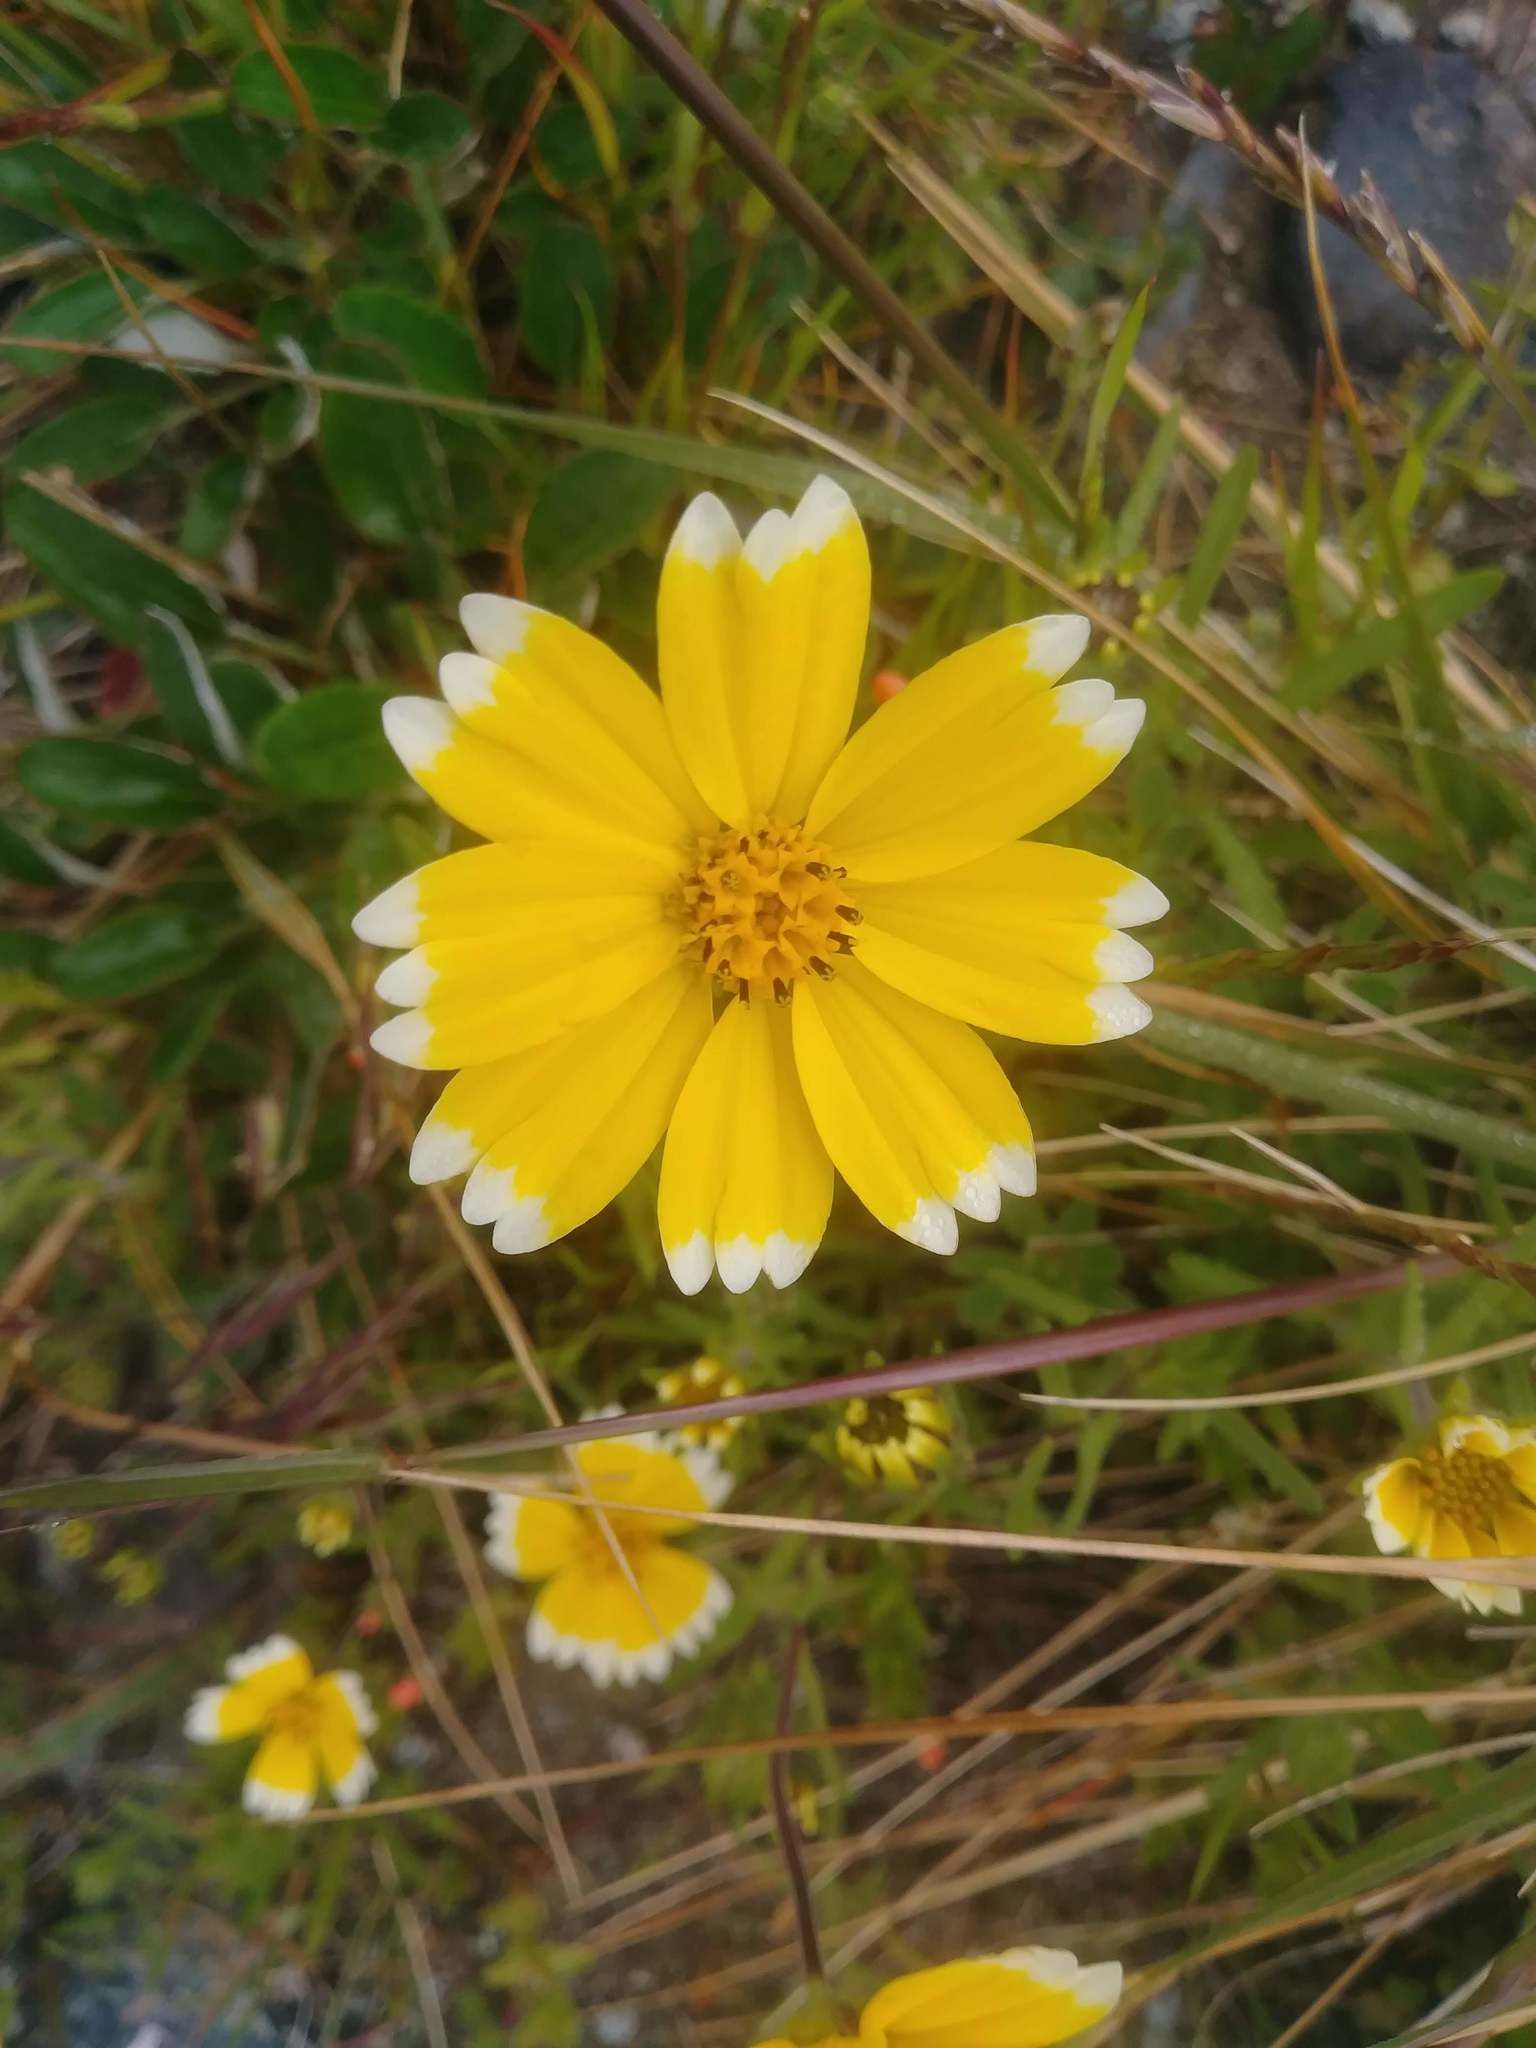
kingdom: Plantae
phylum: Tracheophyta
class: Magnoliopsida
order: Asterales
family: Asteraceae
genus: Layia
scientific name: Layia platyglossa
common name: Tidy-tips
